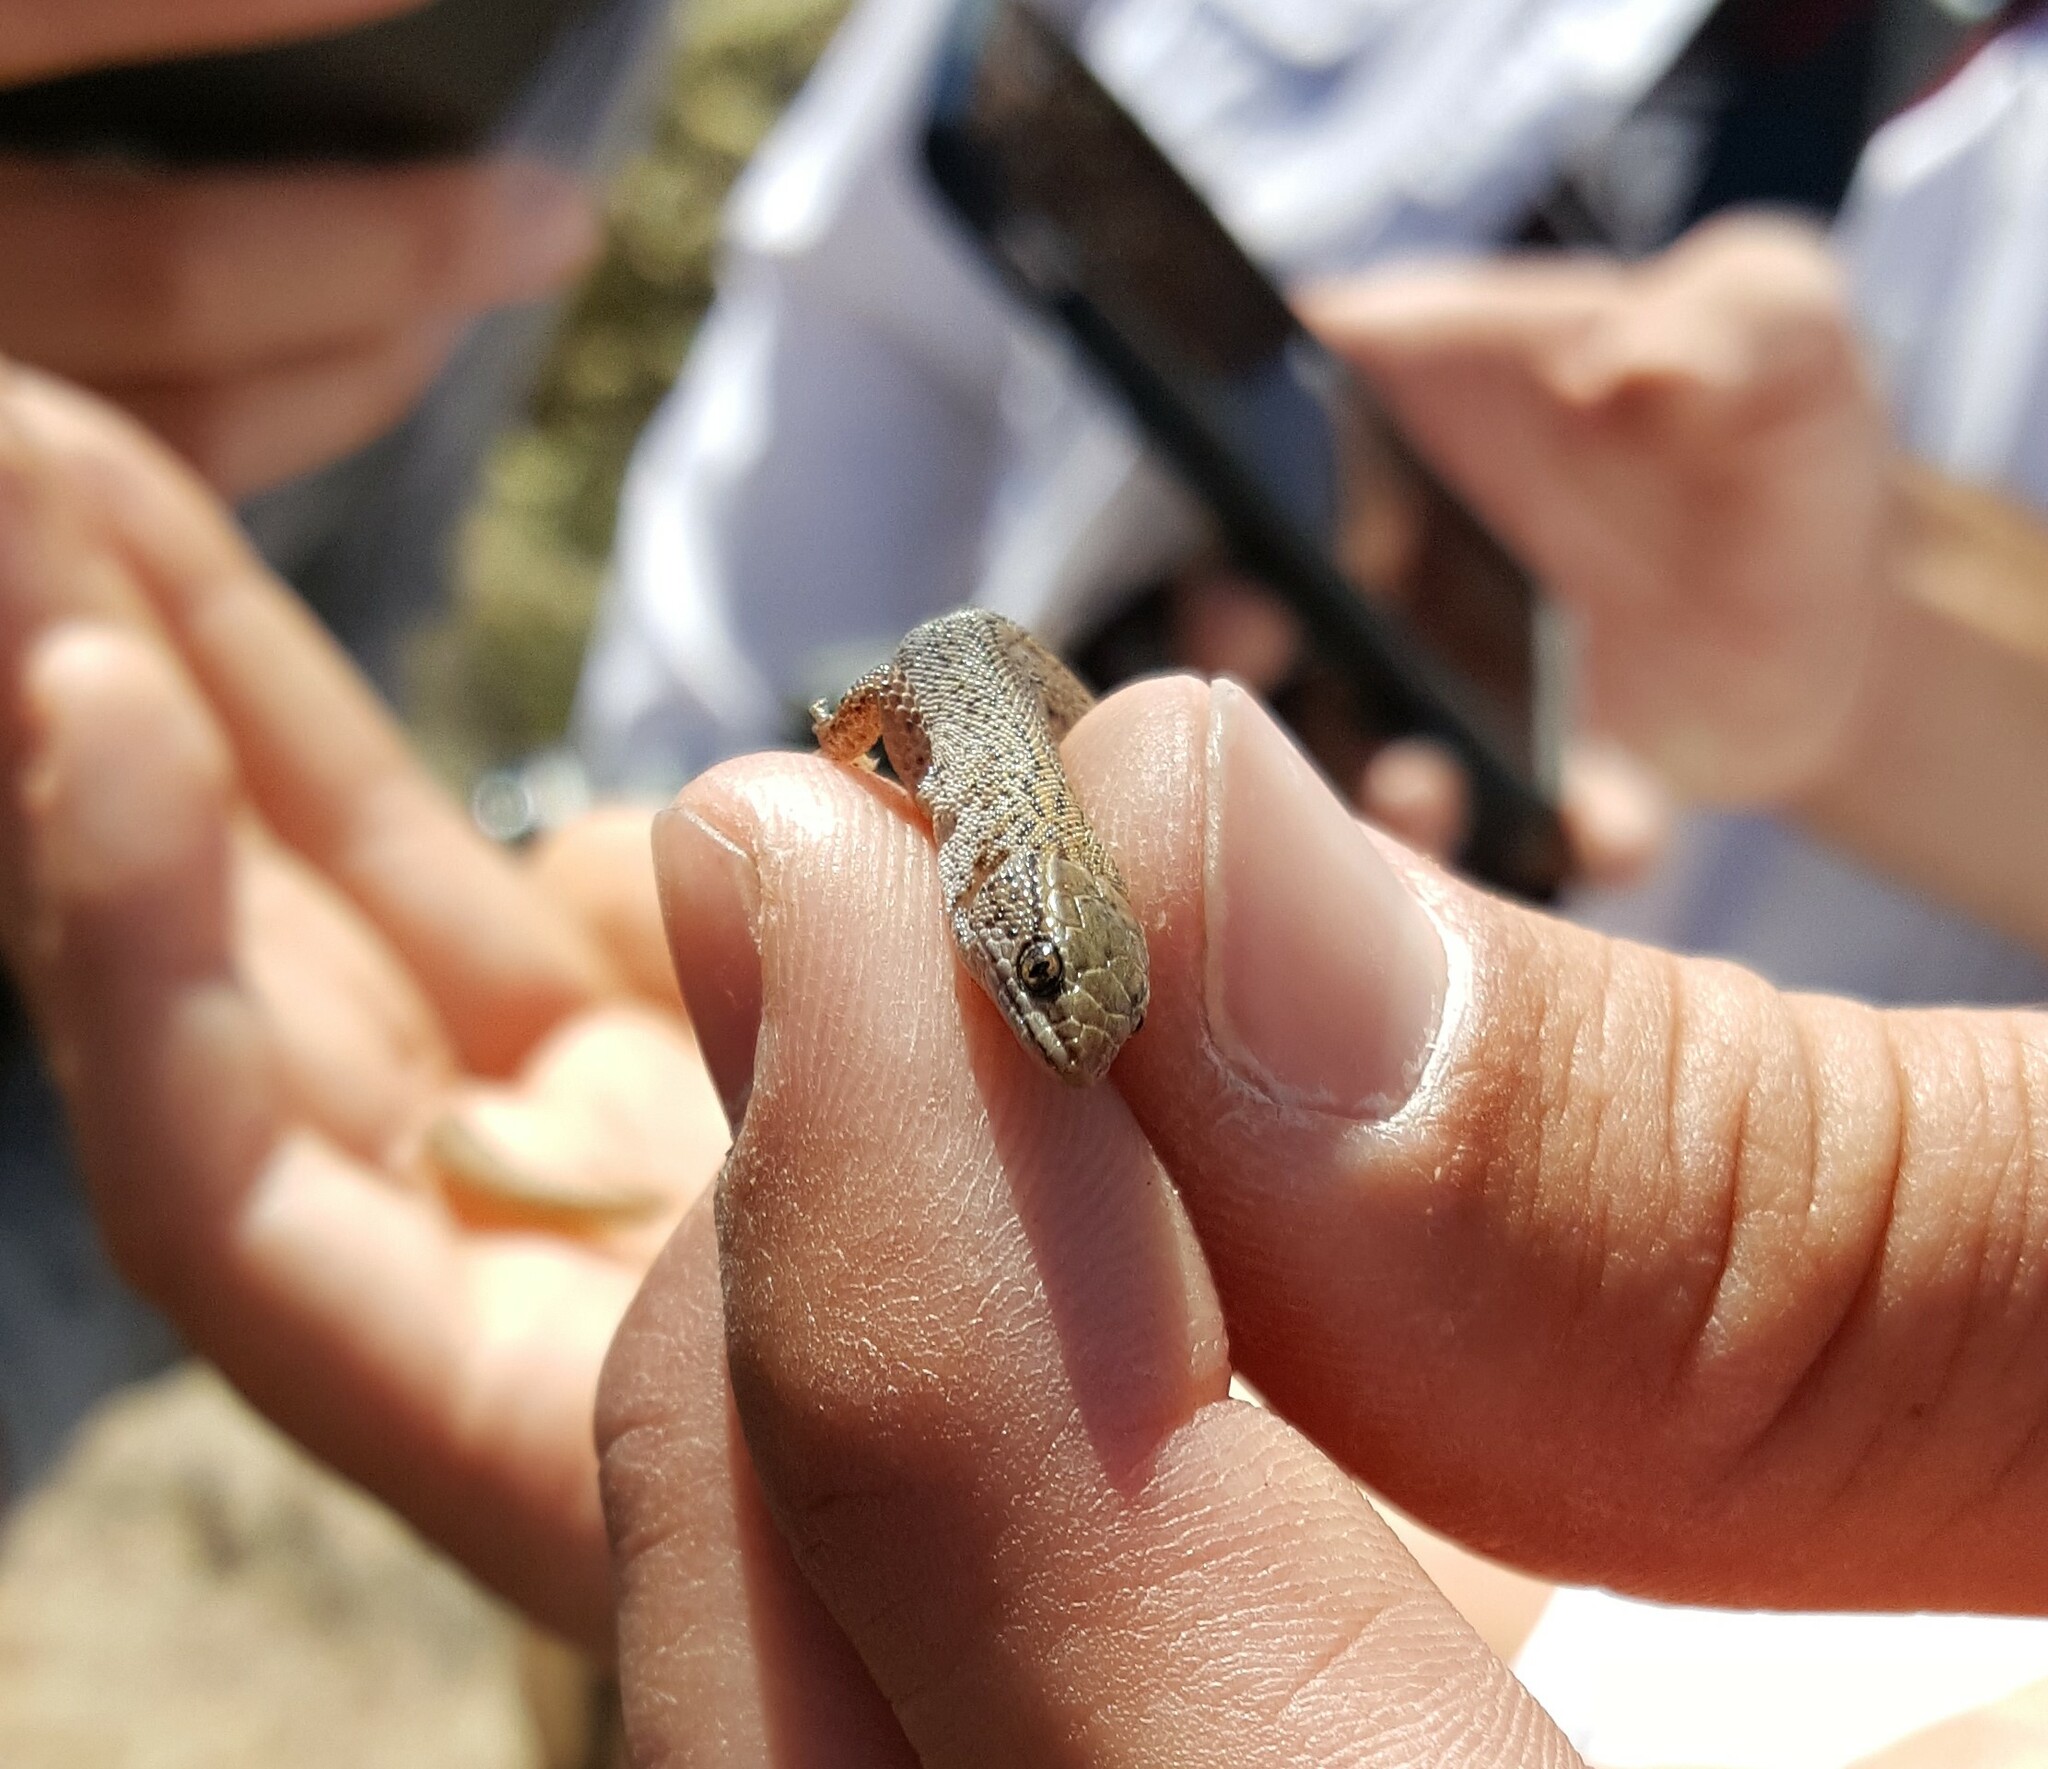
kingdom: Animalia
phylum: Chordata
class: Squamata
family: Xantusiidae
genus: Xantusia
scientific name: Xantusia vigilis
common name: Desert night lizard
